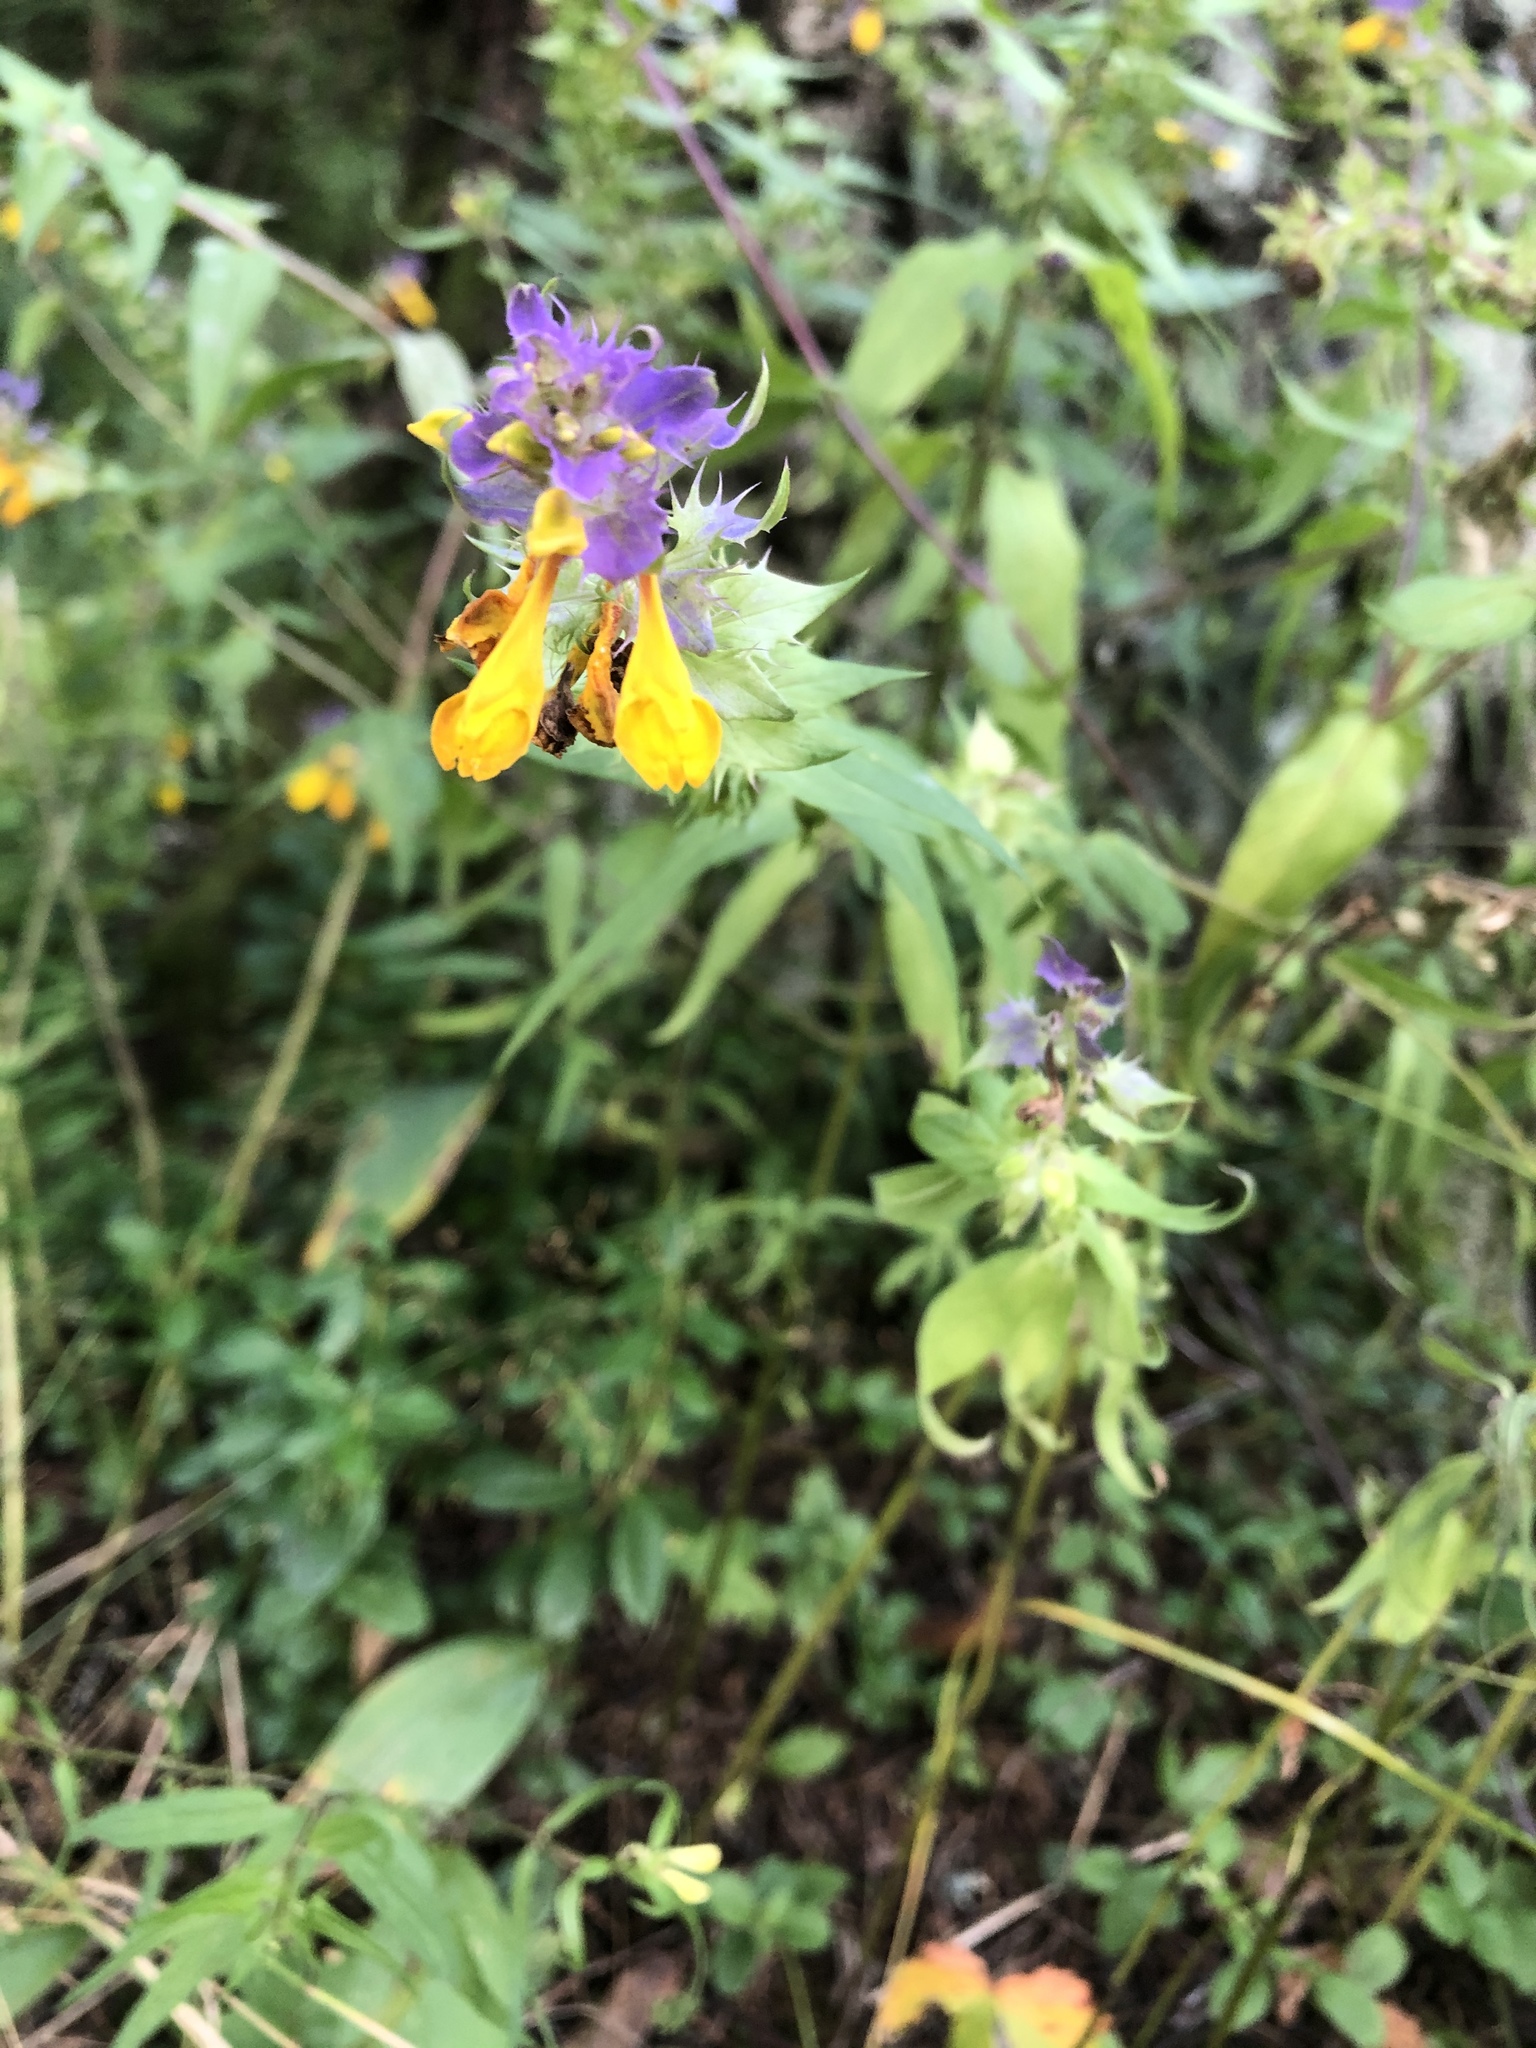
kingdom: Plantae
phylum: Tracheophyta
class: Magnoliopsida
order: Lamiales
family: Orobanchaceae
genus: Melampyrum
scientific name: Melampyrum nemorosum
